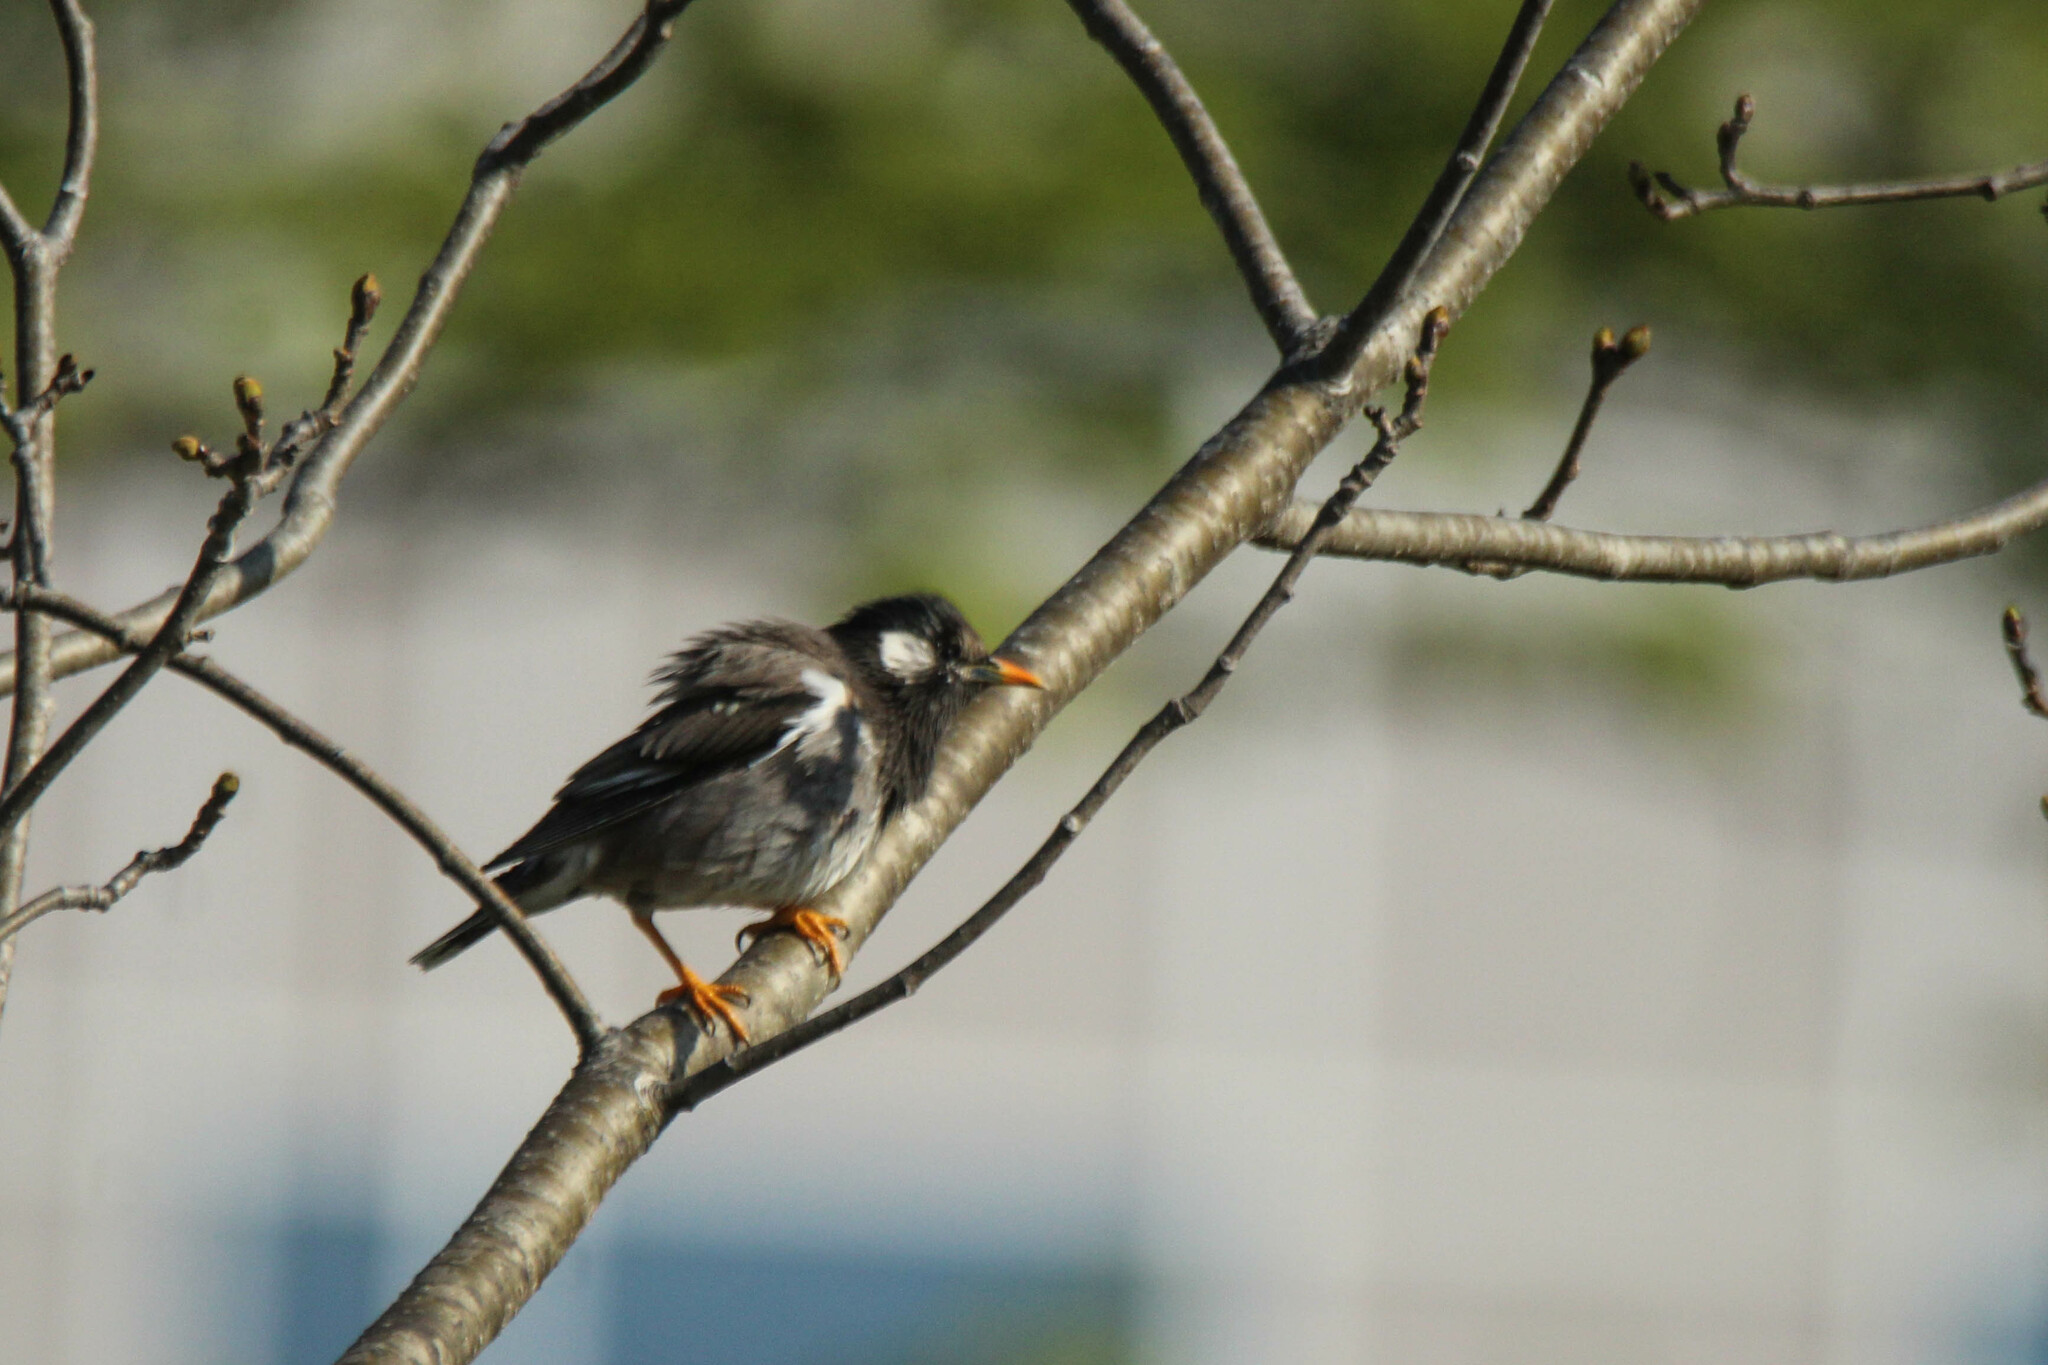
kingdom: Animalia
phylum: Chordata
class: Aves
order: Passeriformes
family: Sturnidae
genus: Spodiopsar
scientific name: Spodiopsar cineraceus
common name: White-cheeked starling
